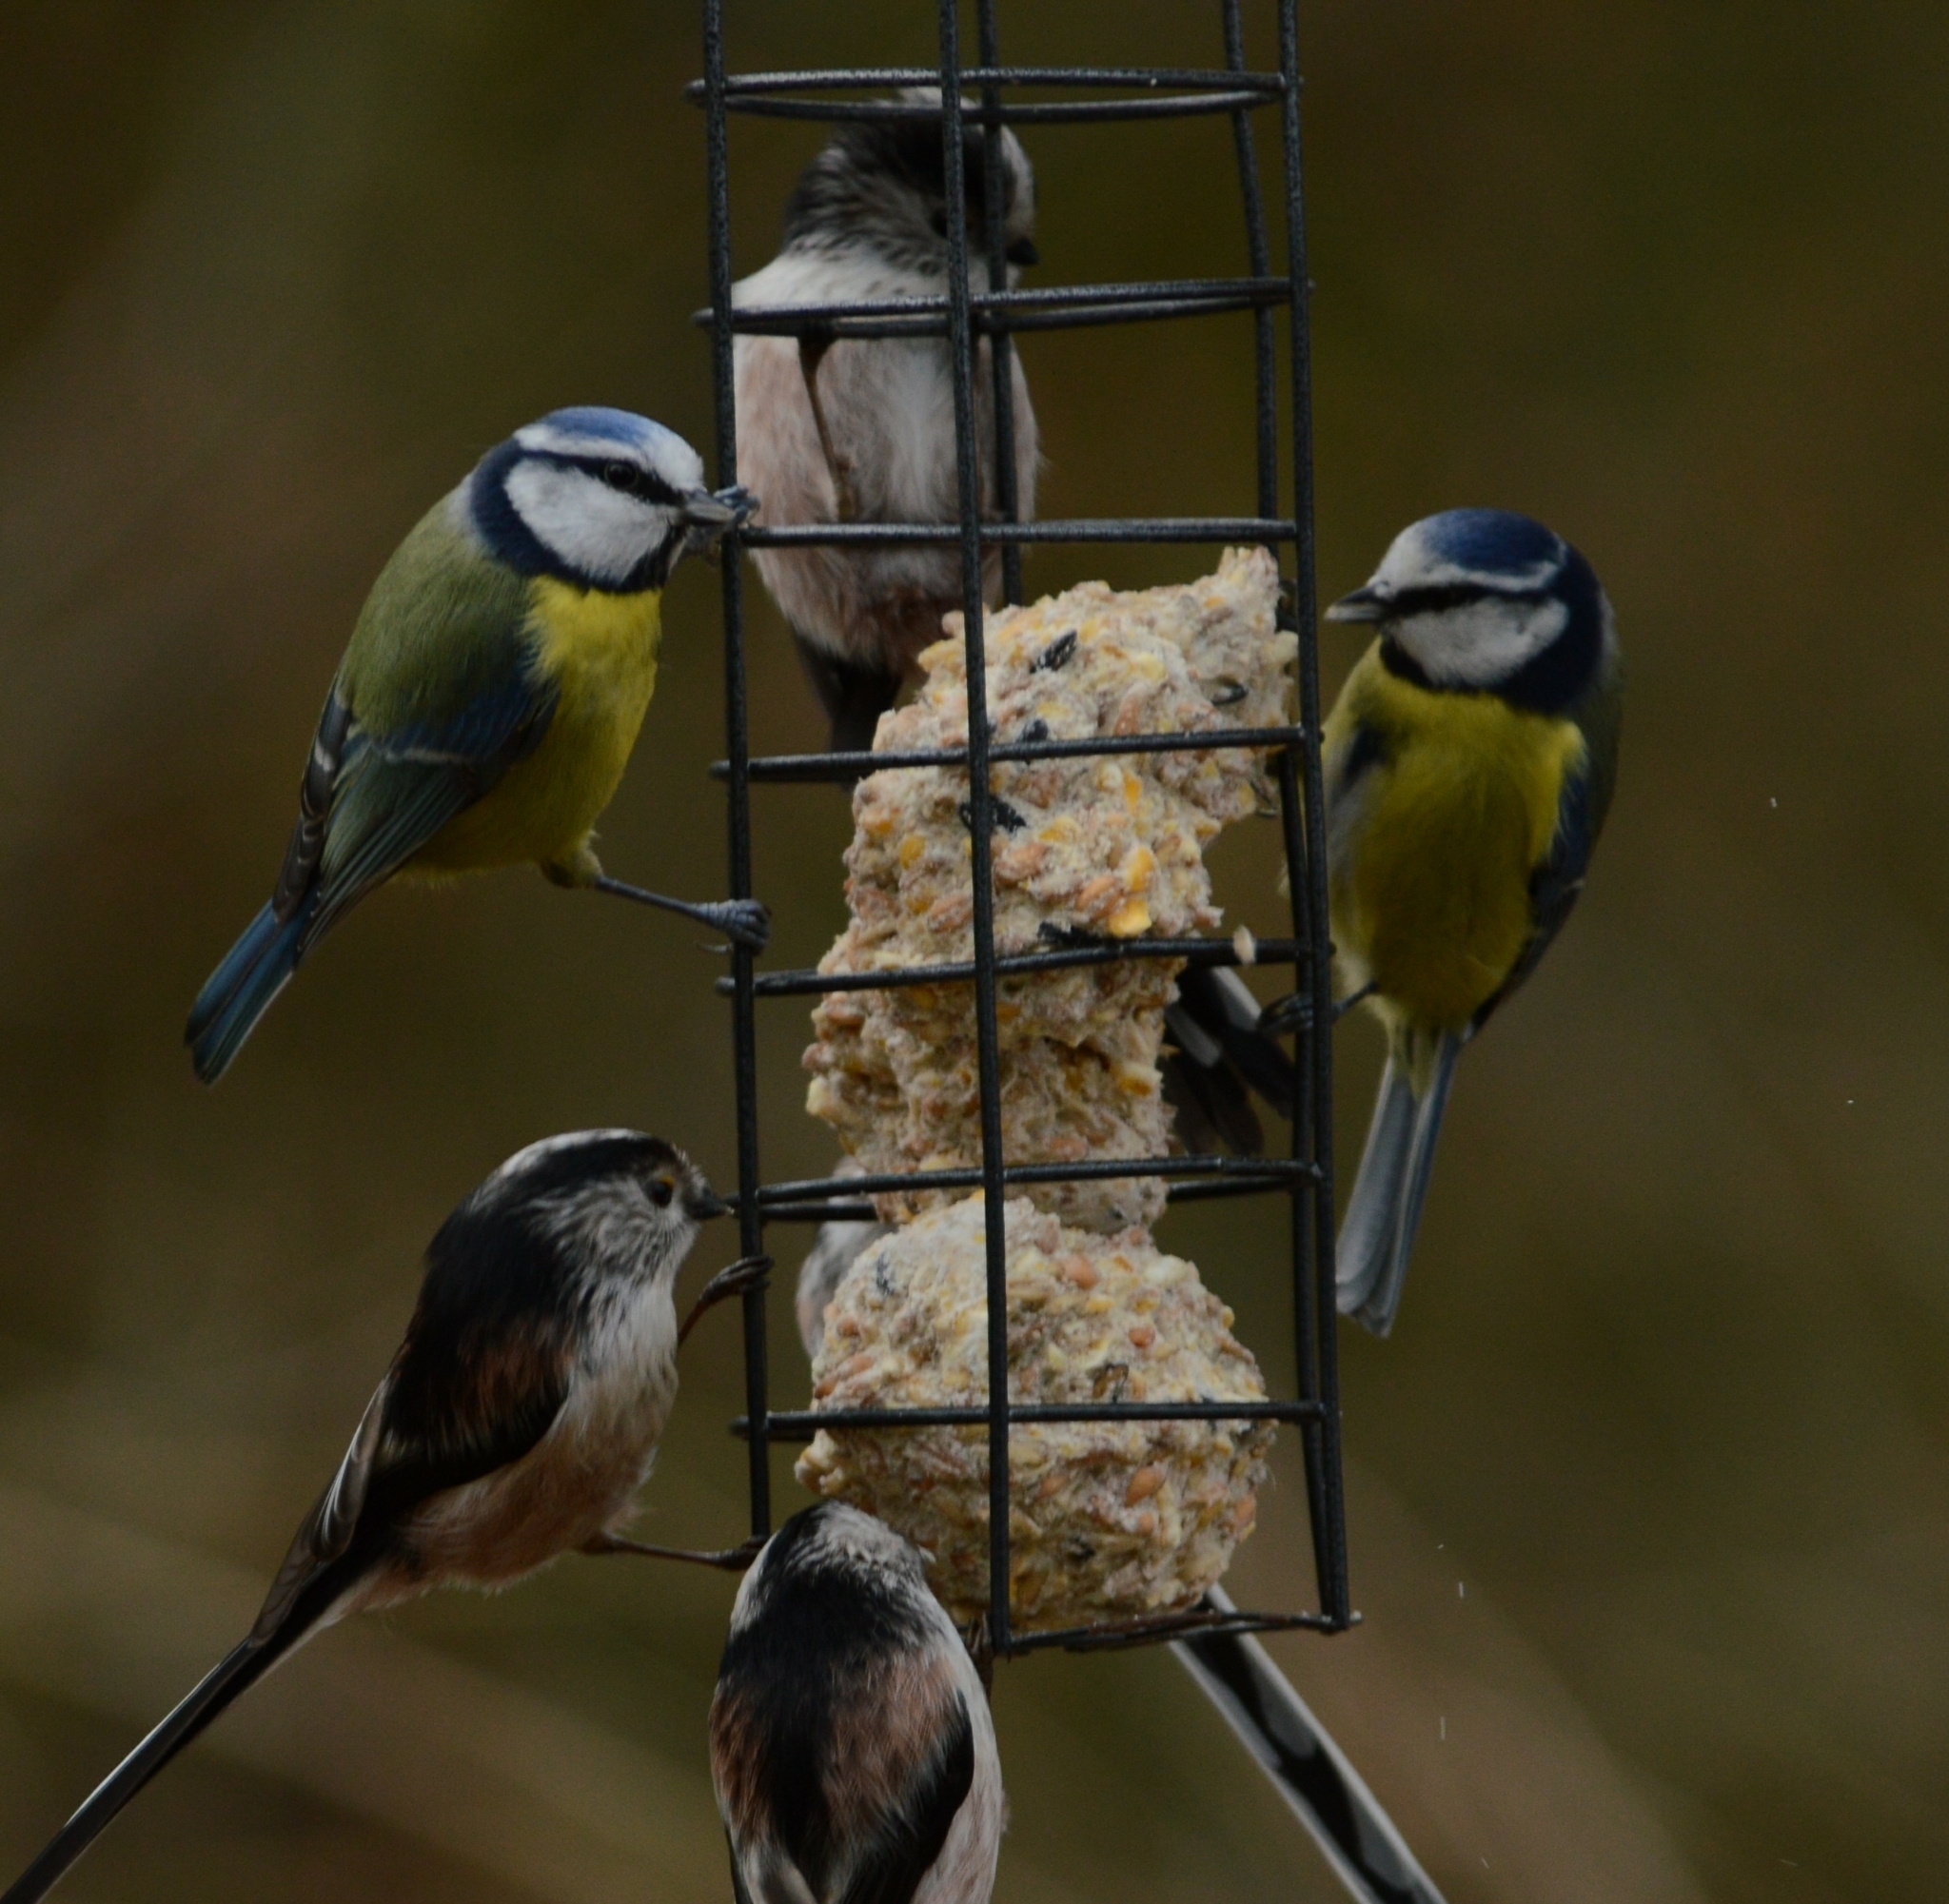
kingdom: Animalia
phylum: Chordata
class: Aves
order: Passeriformes
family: Paridae
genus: Cyanistes
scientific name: Cyanistes caeruleus
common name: Eurasian blue tit
